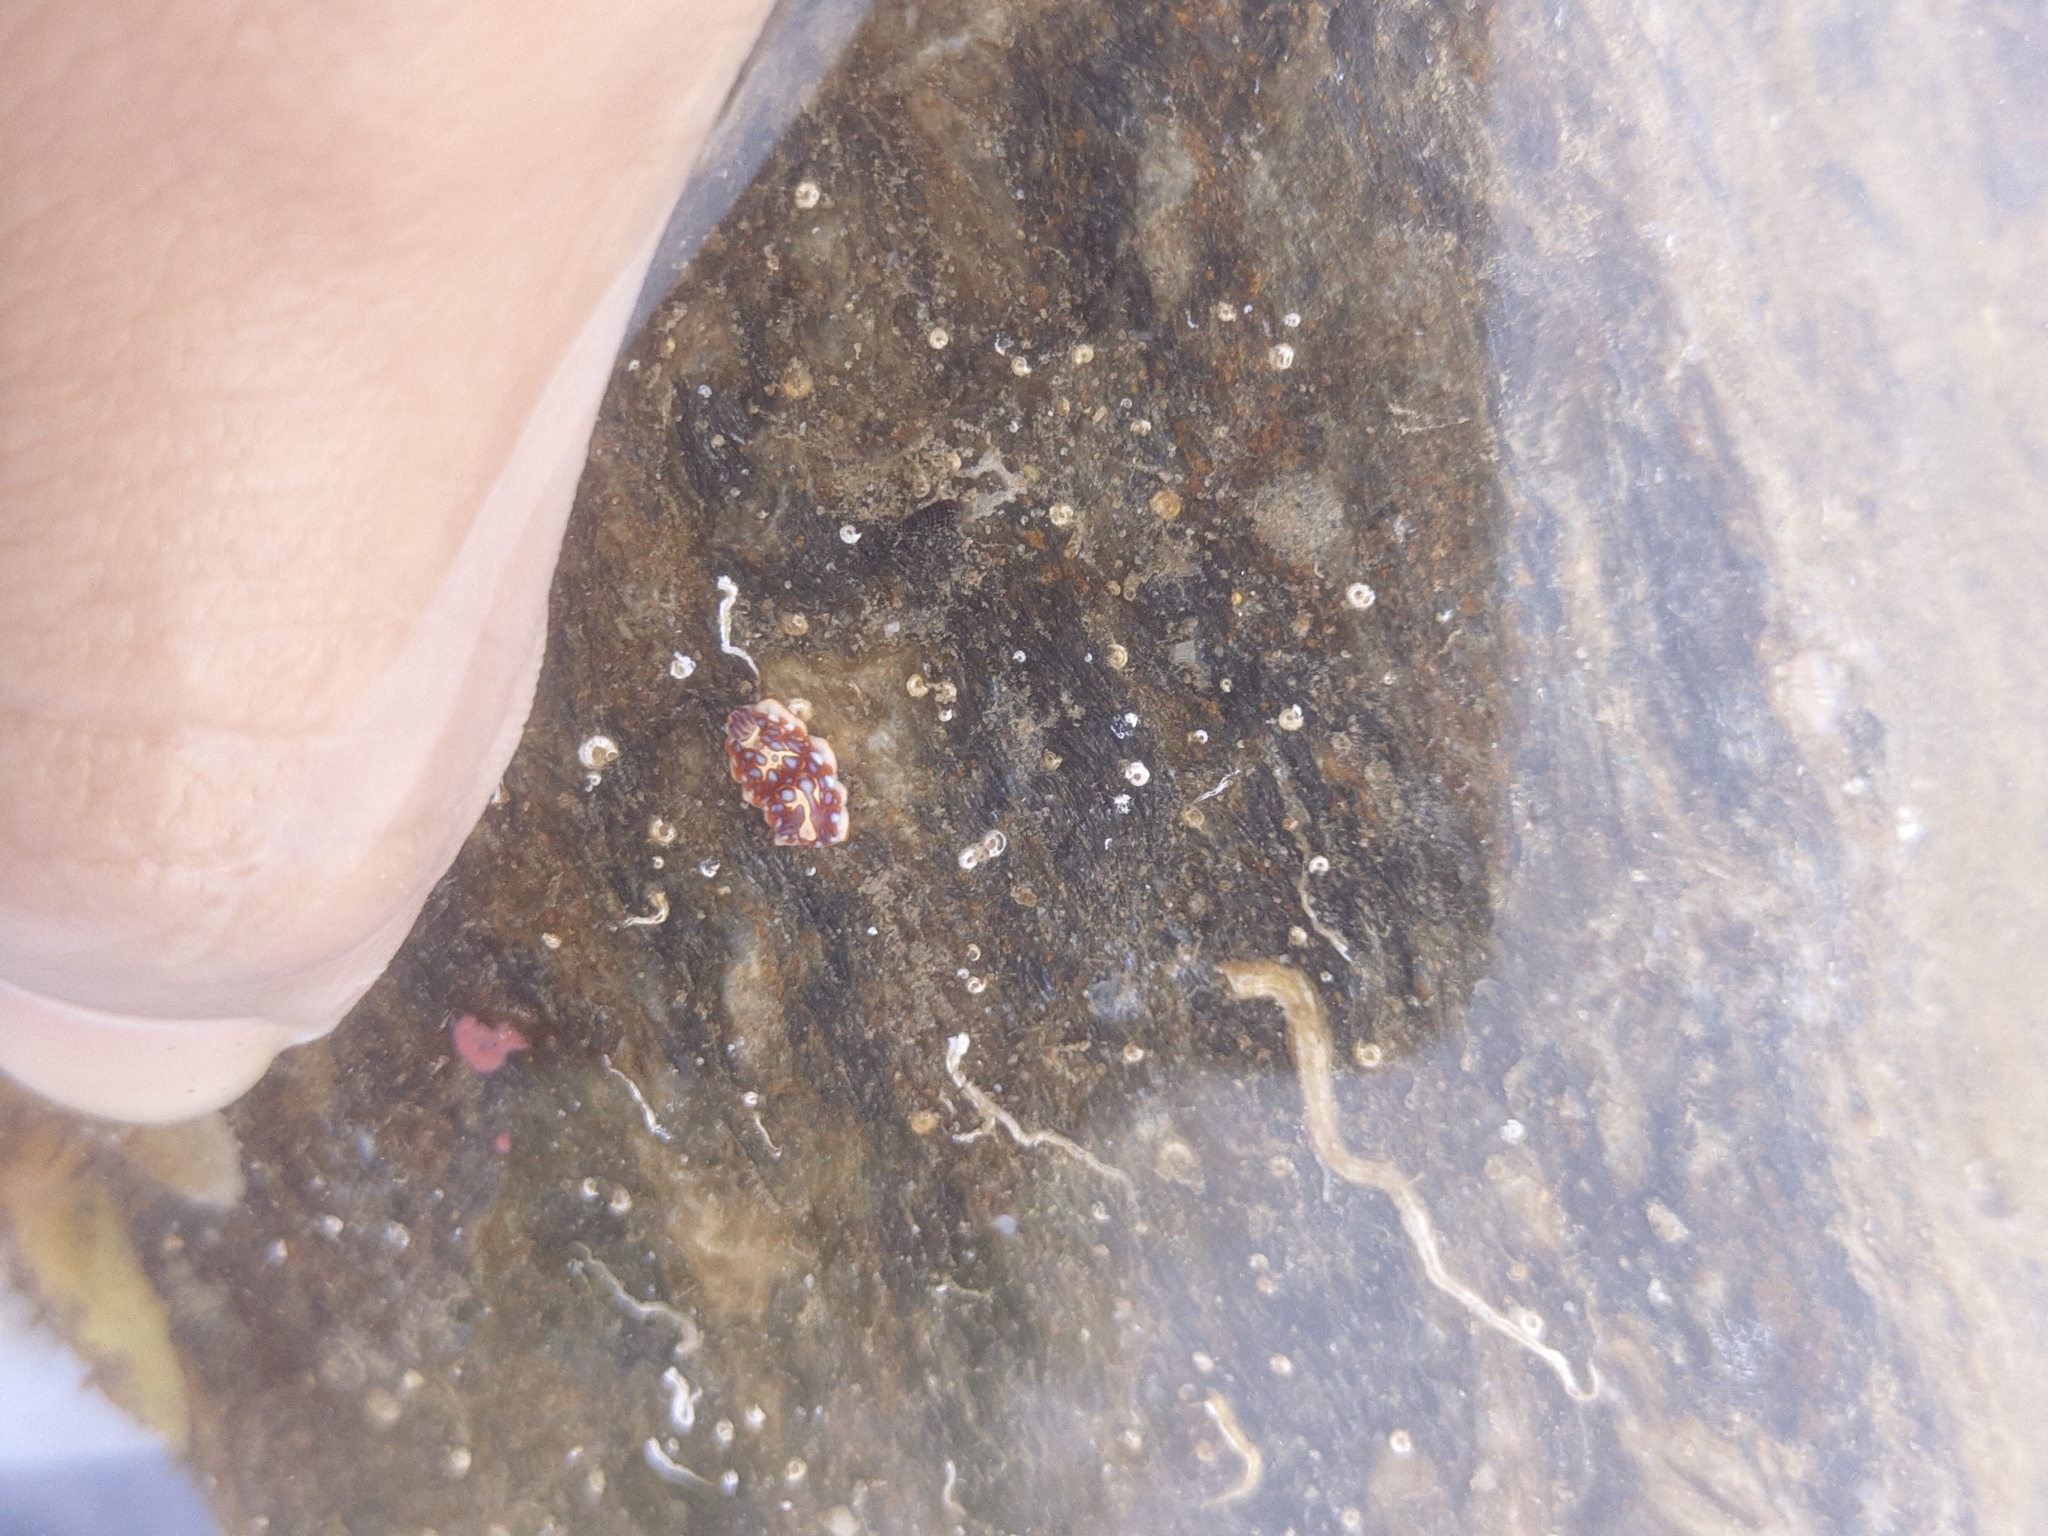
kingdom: Animalia
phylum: Mollusca
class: Gastropoda
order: Nudibranchia
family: Chromodorididae
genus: Felimida
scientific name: Felimida clenchi
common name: Bill clench's doris
